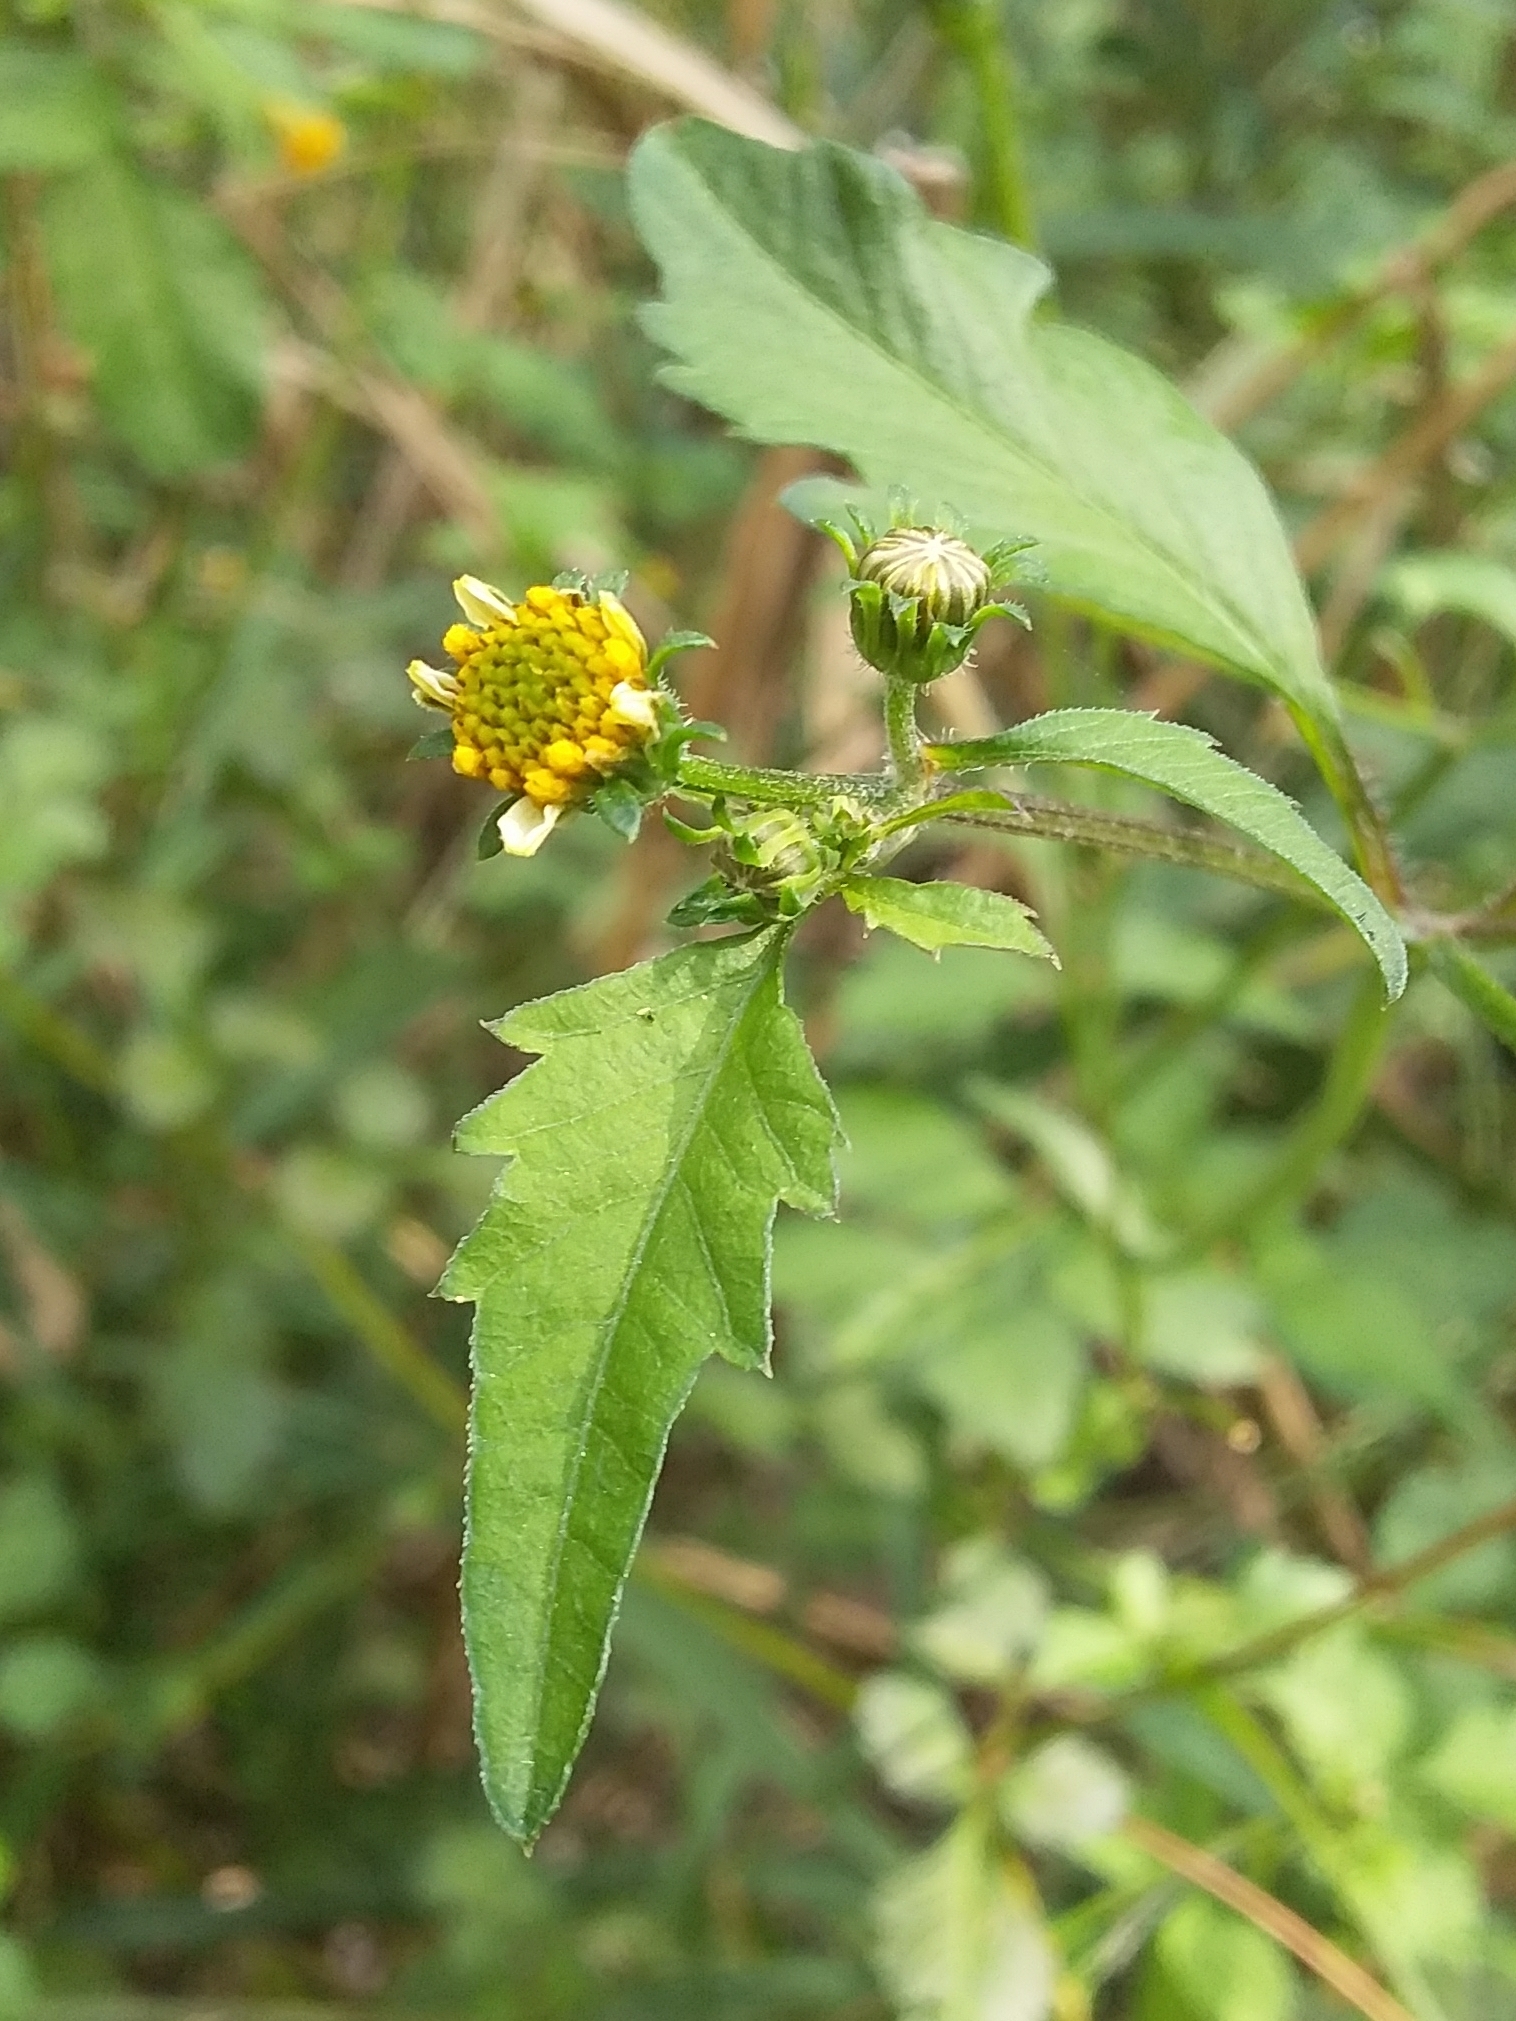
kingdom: Plantae
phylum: Tracheophyta
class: Magnoliopsida
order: Asterales
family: Asteraceae
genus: Bidens
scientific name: Bidens pilosa
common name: Black-jack
